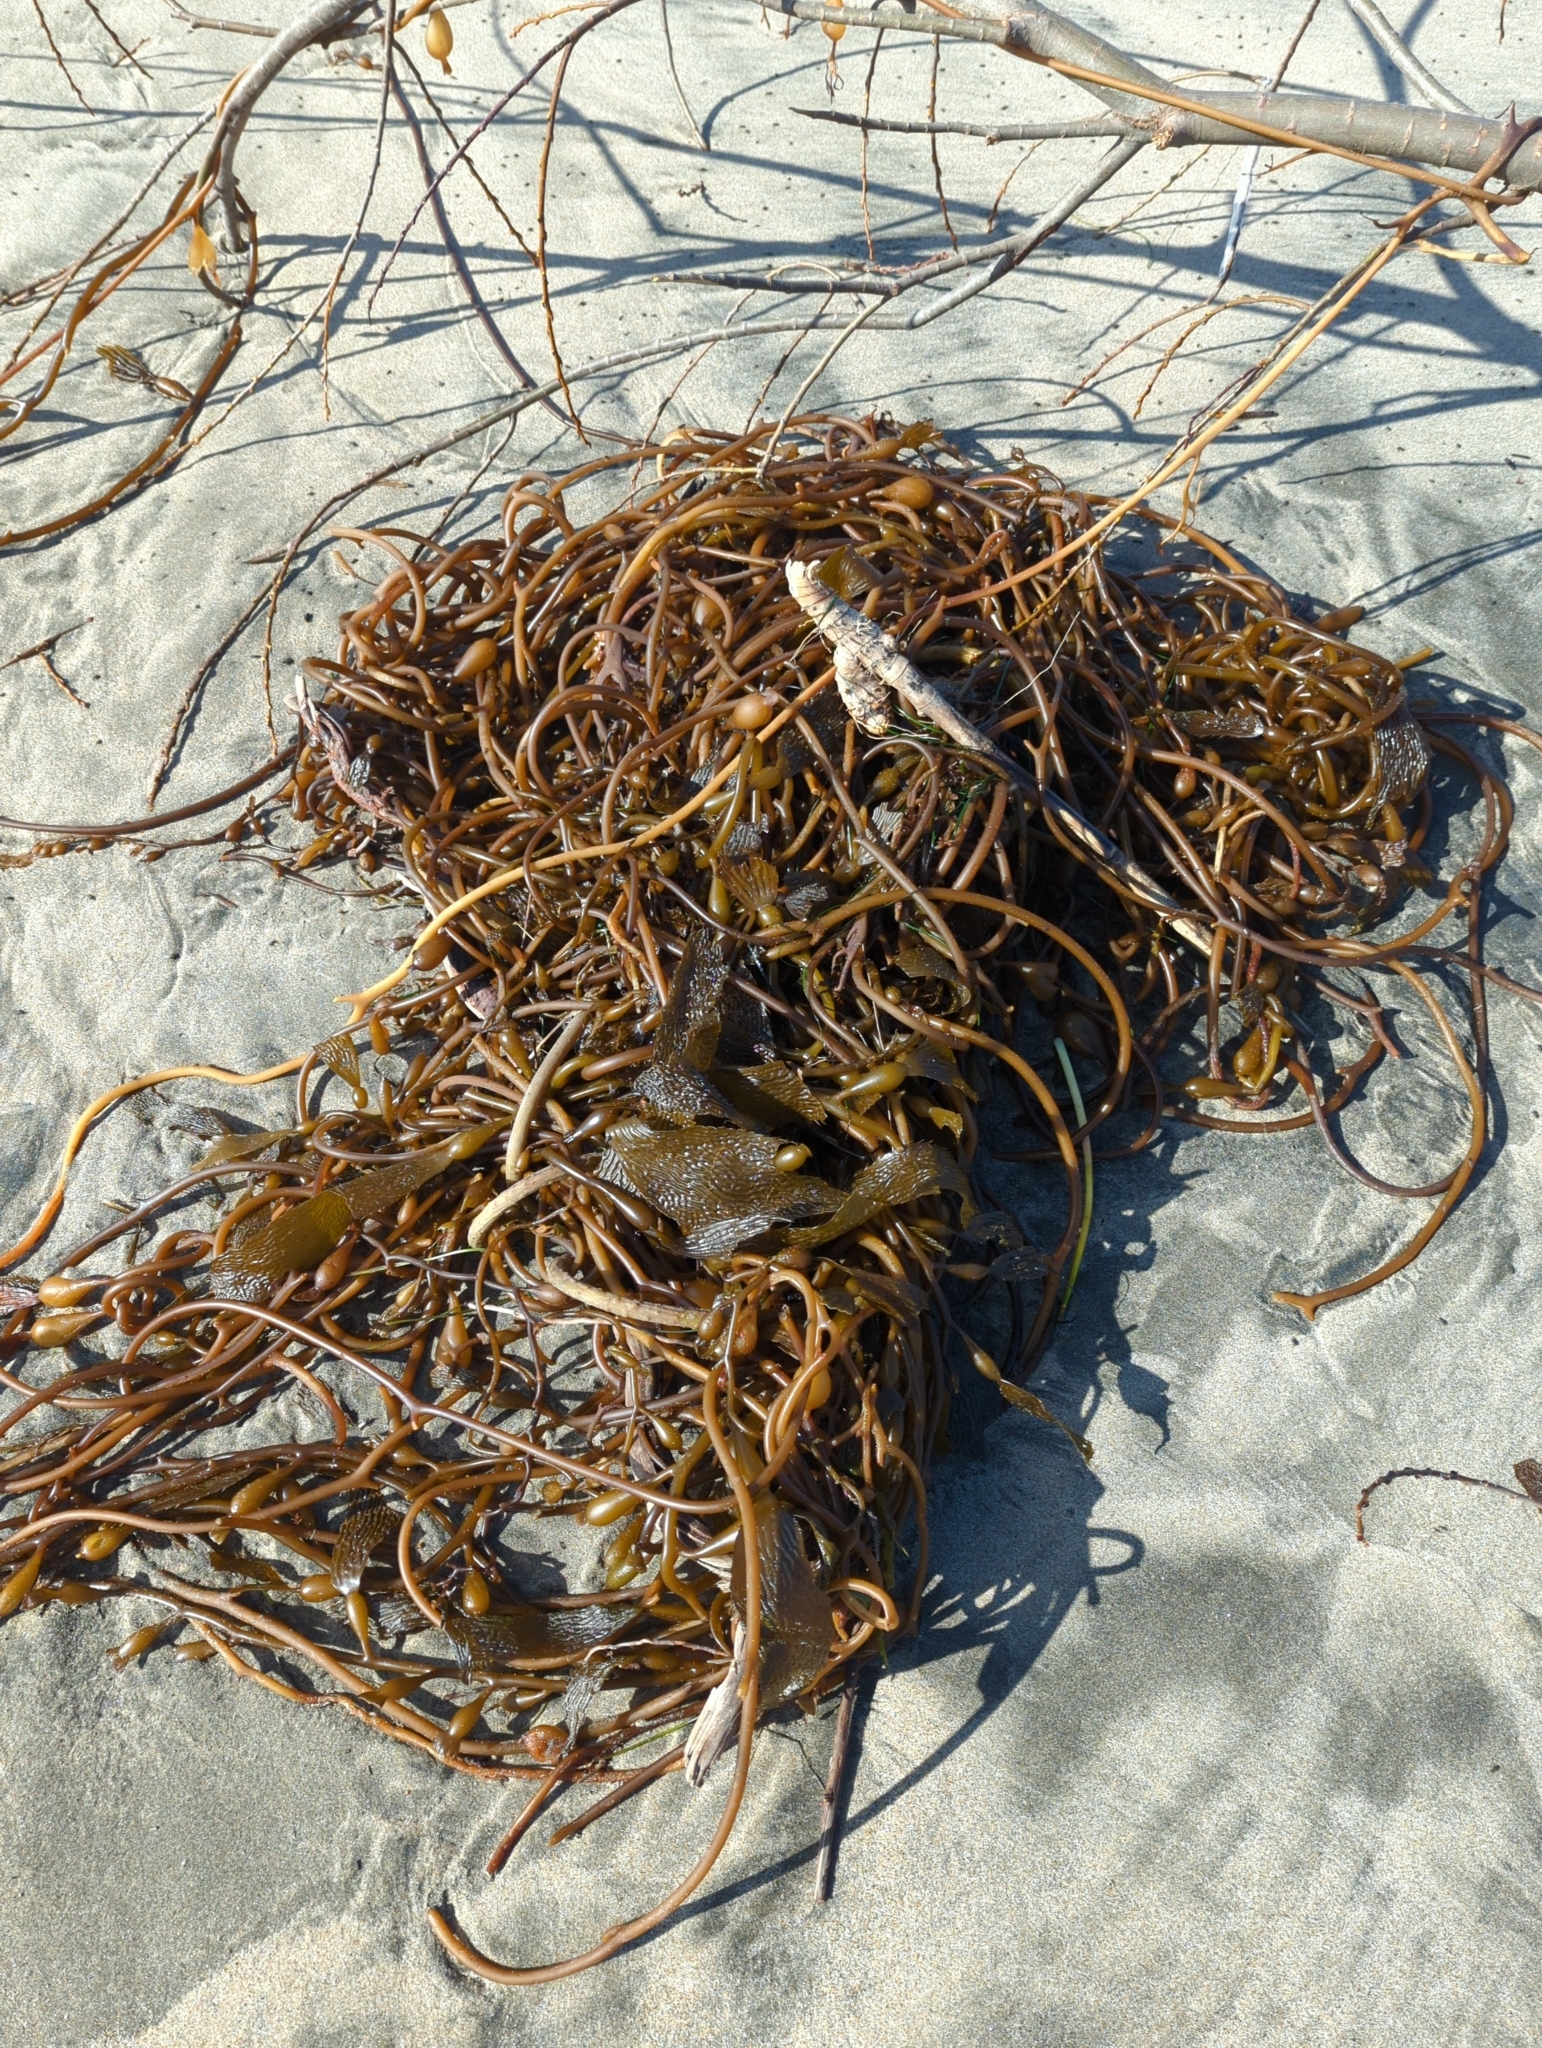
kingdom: Chromista
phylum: Ochrophyta
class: Phaeophyceae
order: Laminariales
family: Laminariaceae
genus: Macrocystis
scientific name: Macrocystis pyrifera
